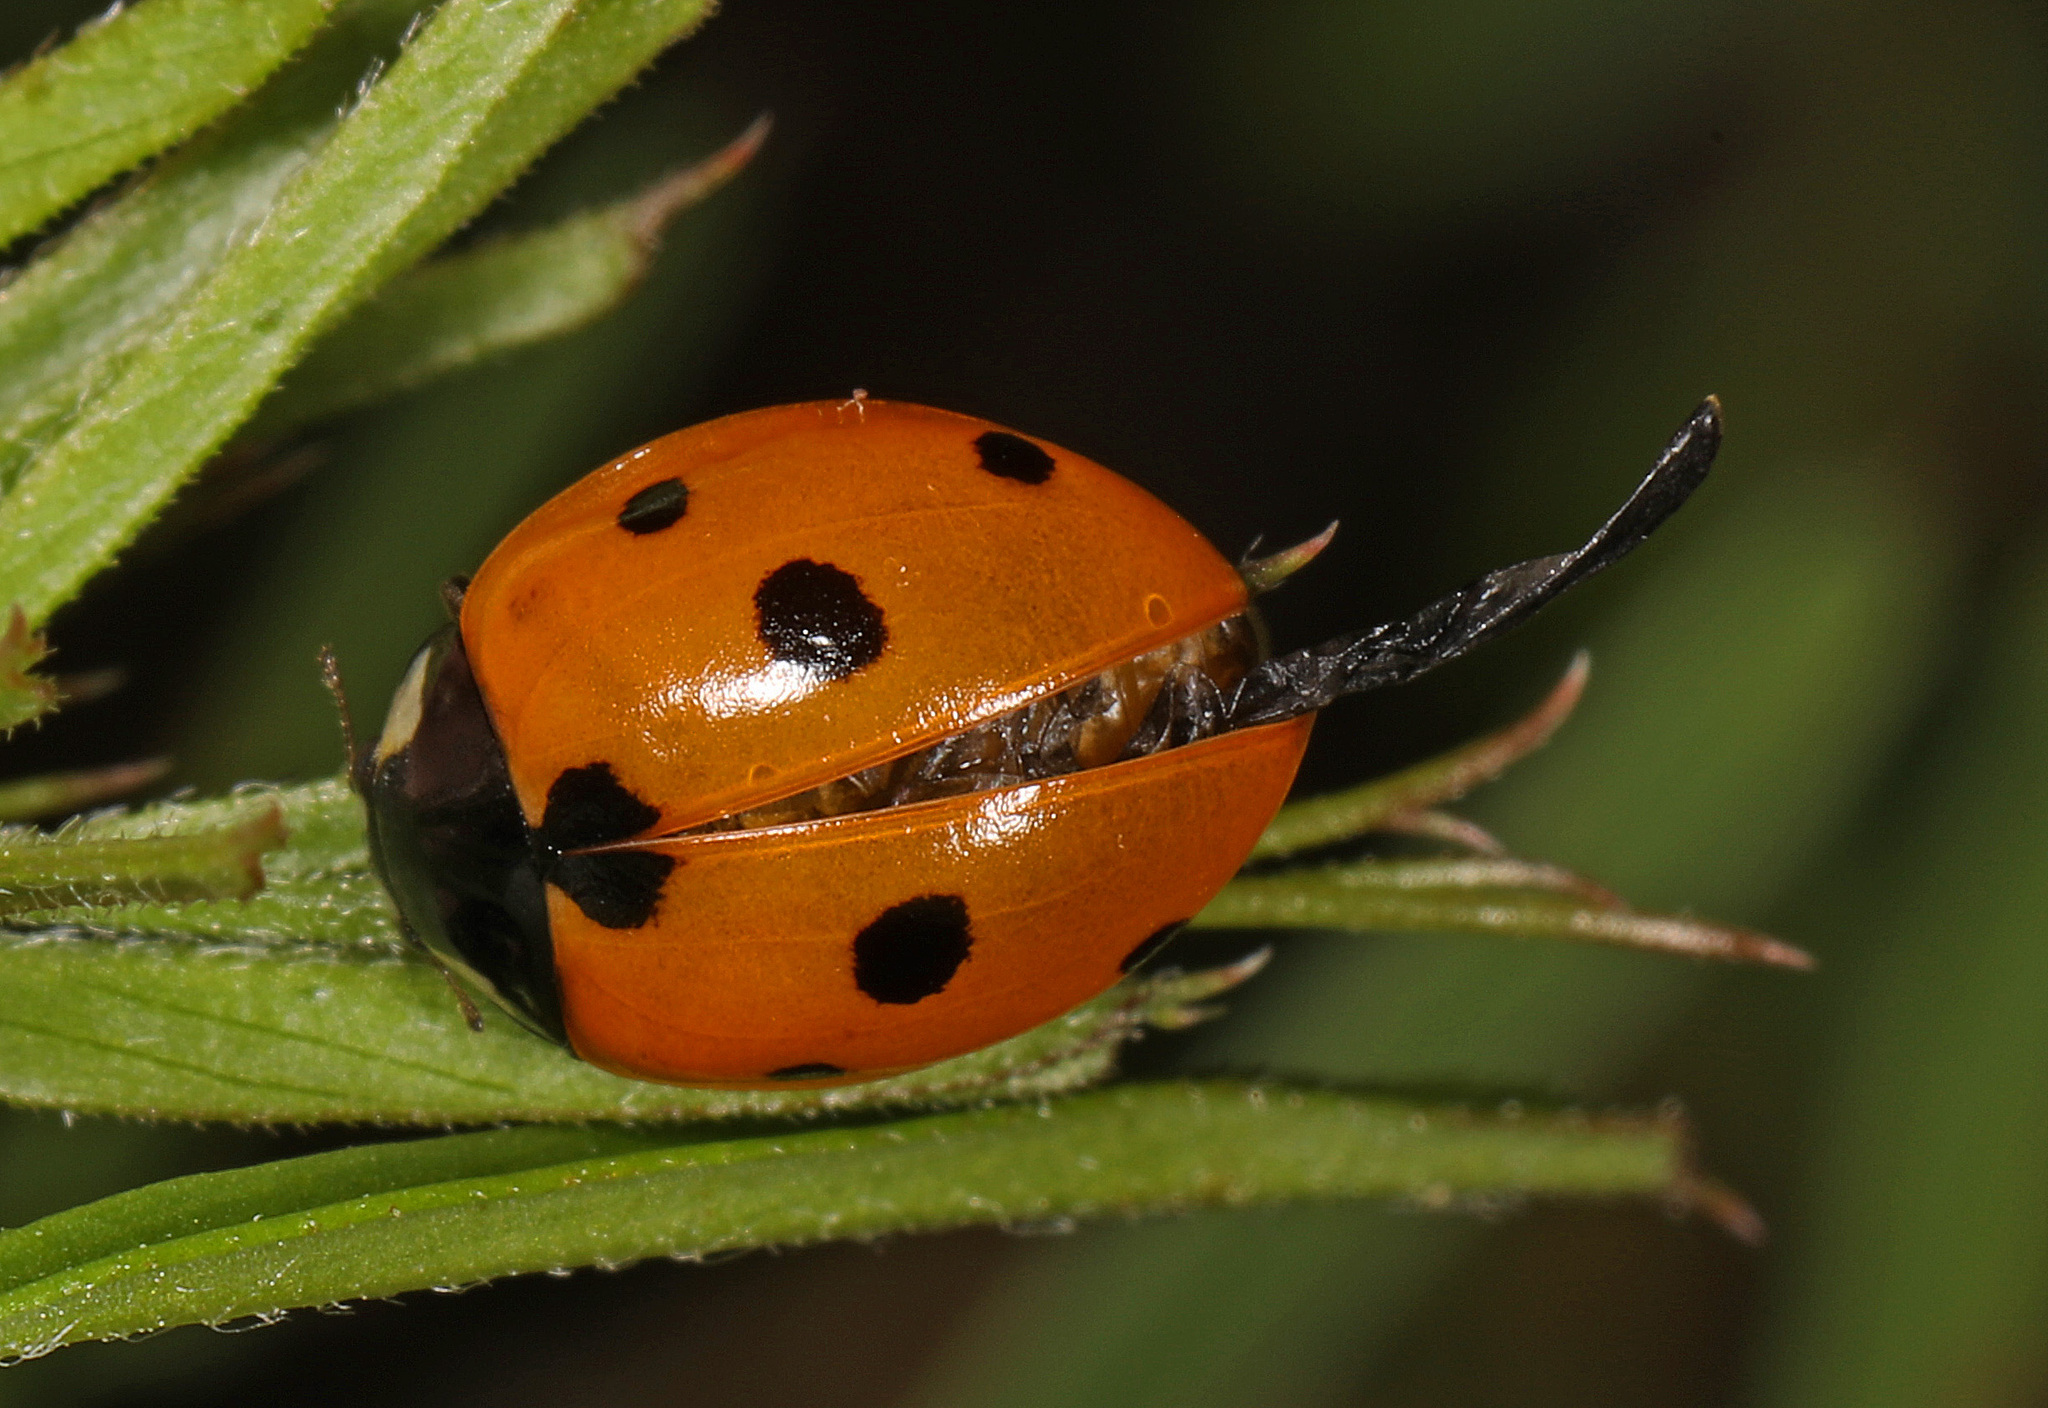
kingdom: Animalia
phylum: Arthropoda
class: Insecta
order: Coleoptera
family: Coccinellidae
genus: Coccinella
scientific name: Coccinella septempunctata
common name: Sevenspotted lady beetle
